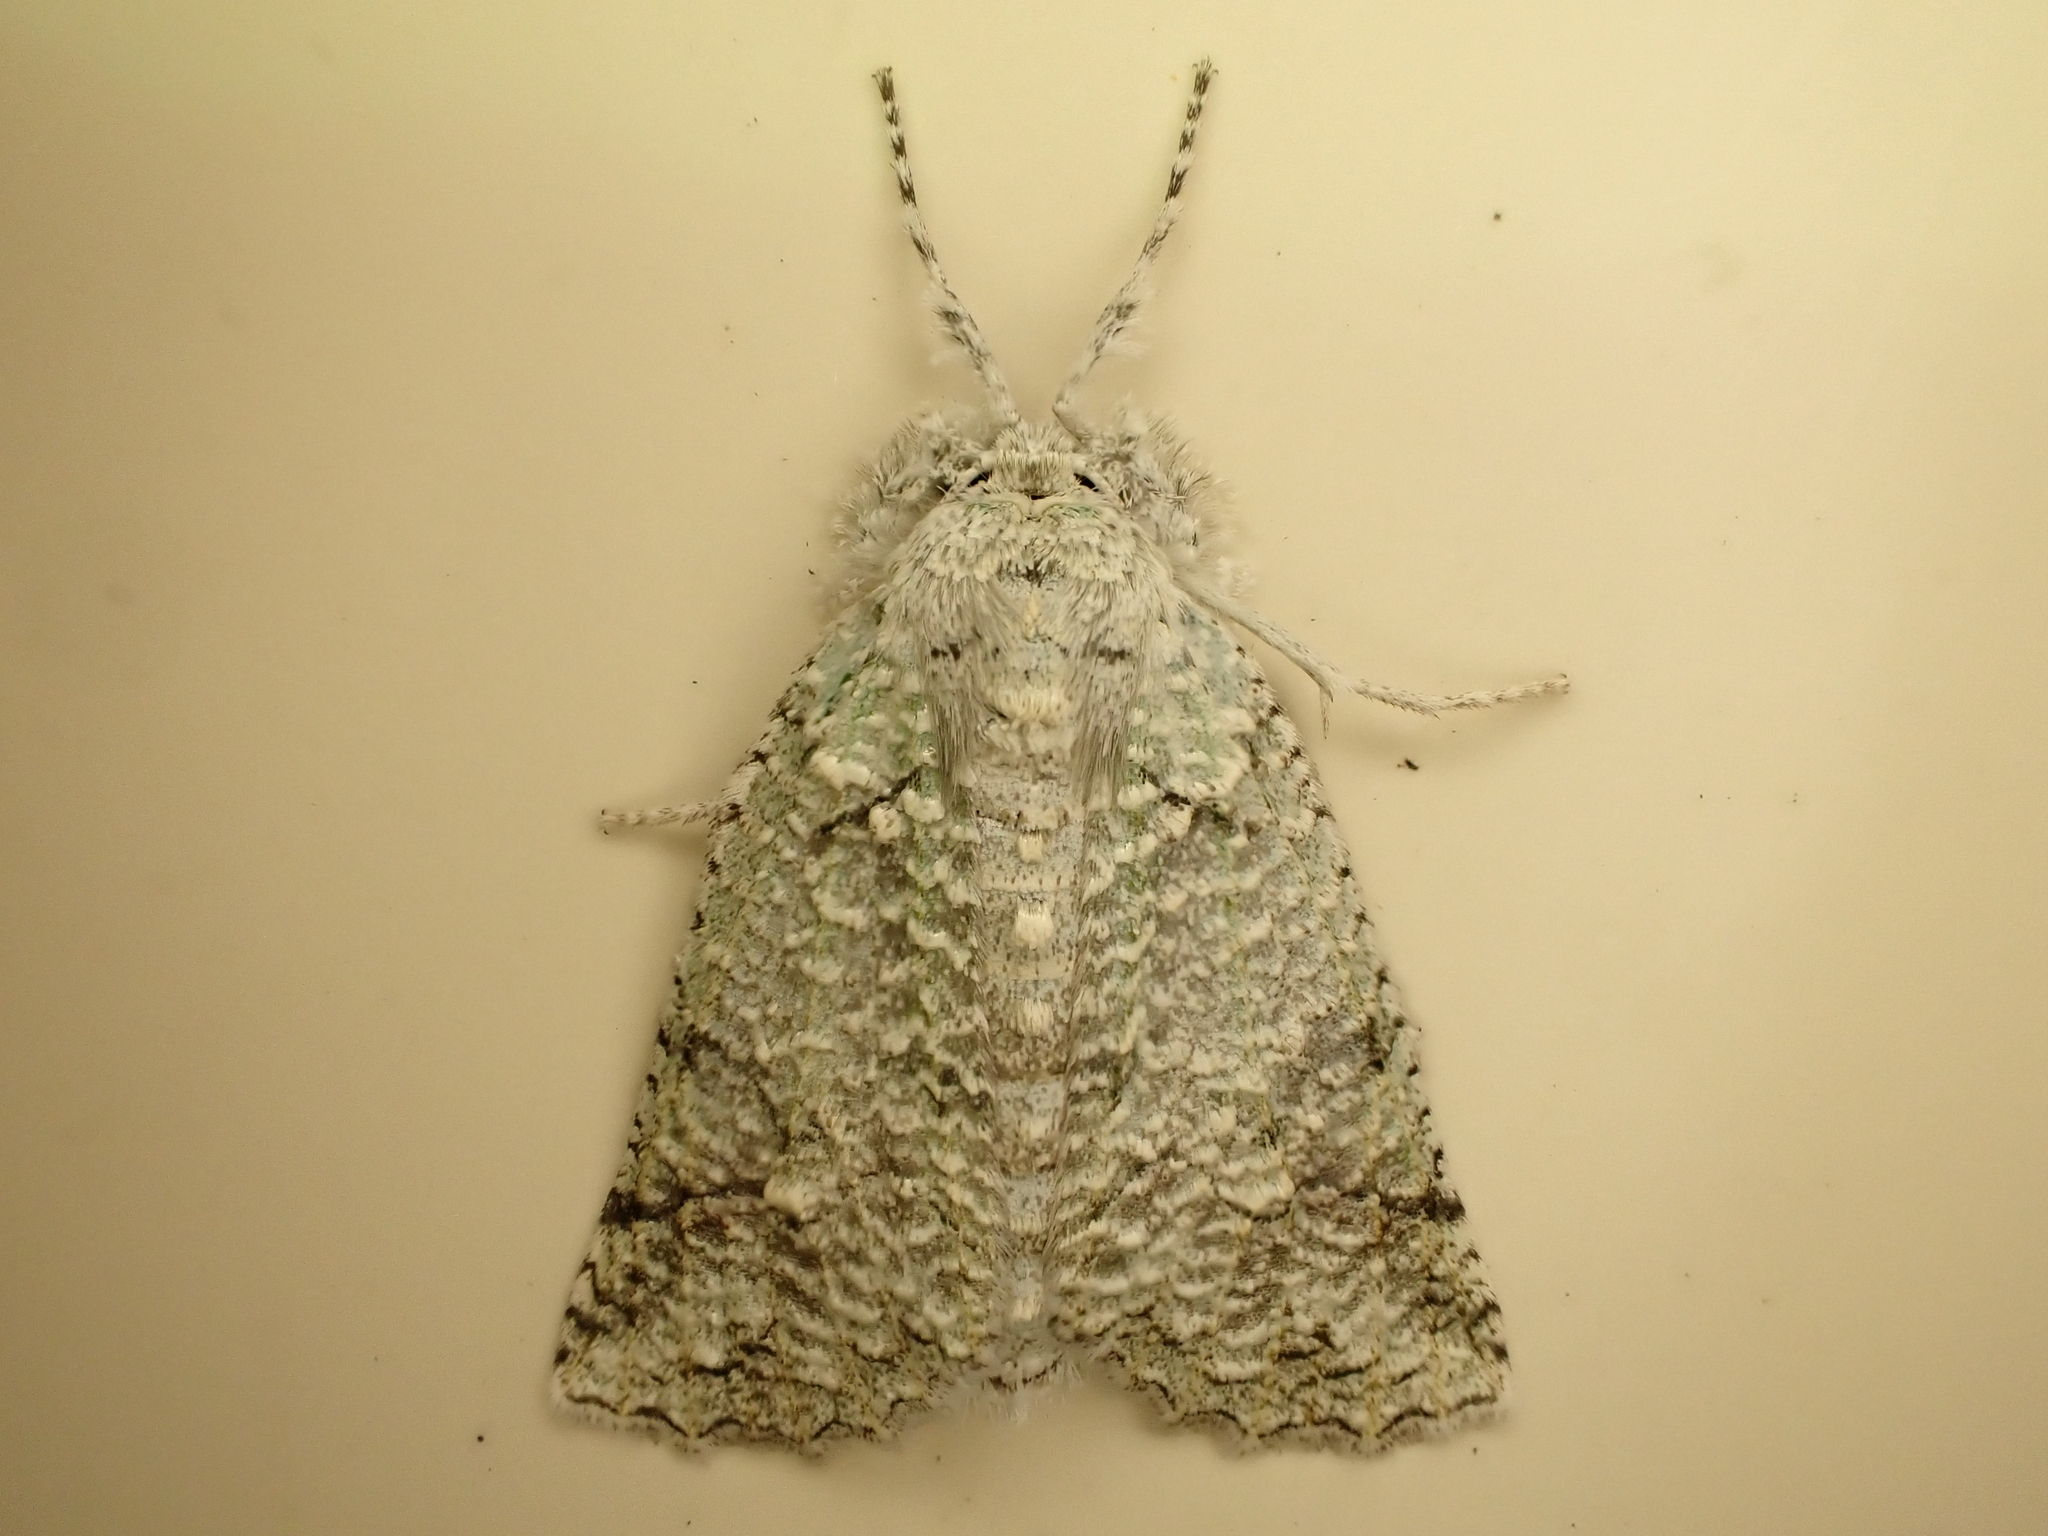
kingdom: Animalia
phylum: Arthropoda
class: Insecta
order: Lepidoptera
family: Geometridae
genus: Declana
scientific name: Declana floccosa
